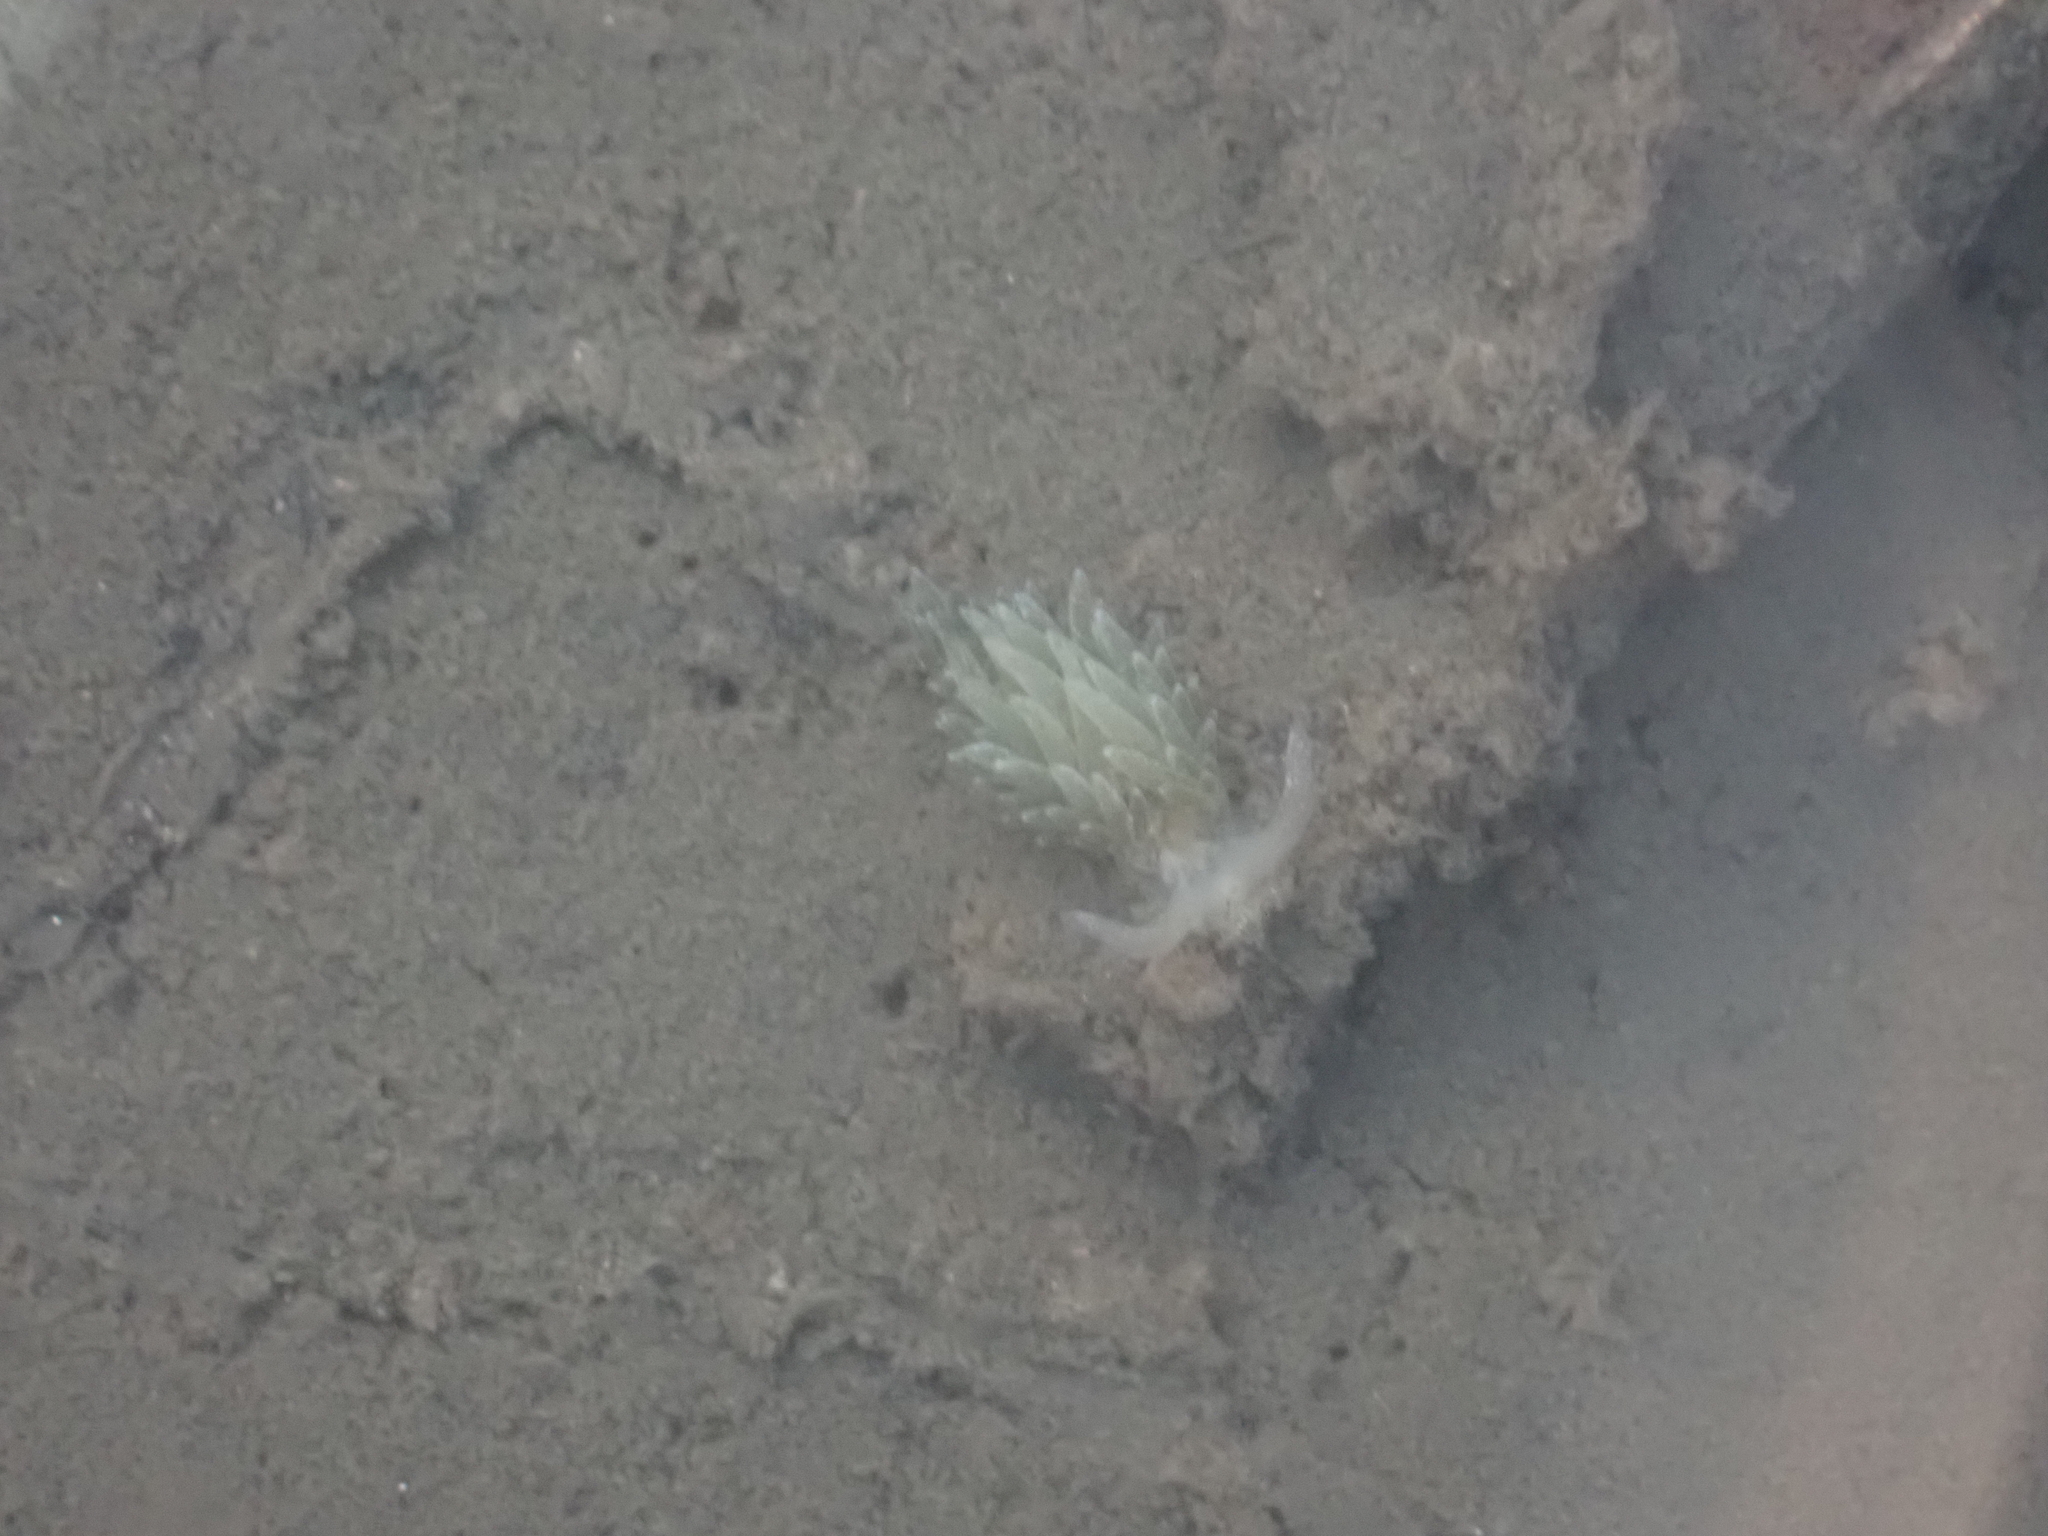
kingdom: Animalia
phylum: Mollusca
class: Gastropoda
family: Limapontiidae
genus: Placida
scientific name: Placida dendritica
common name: Dendritic nudibranch
